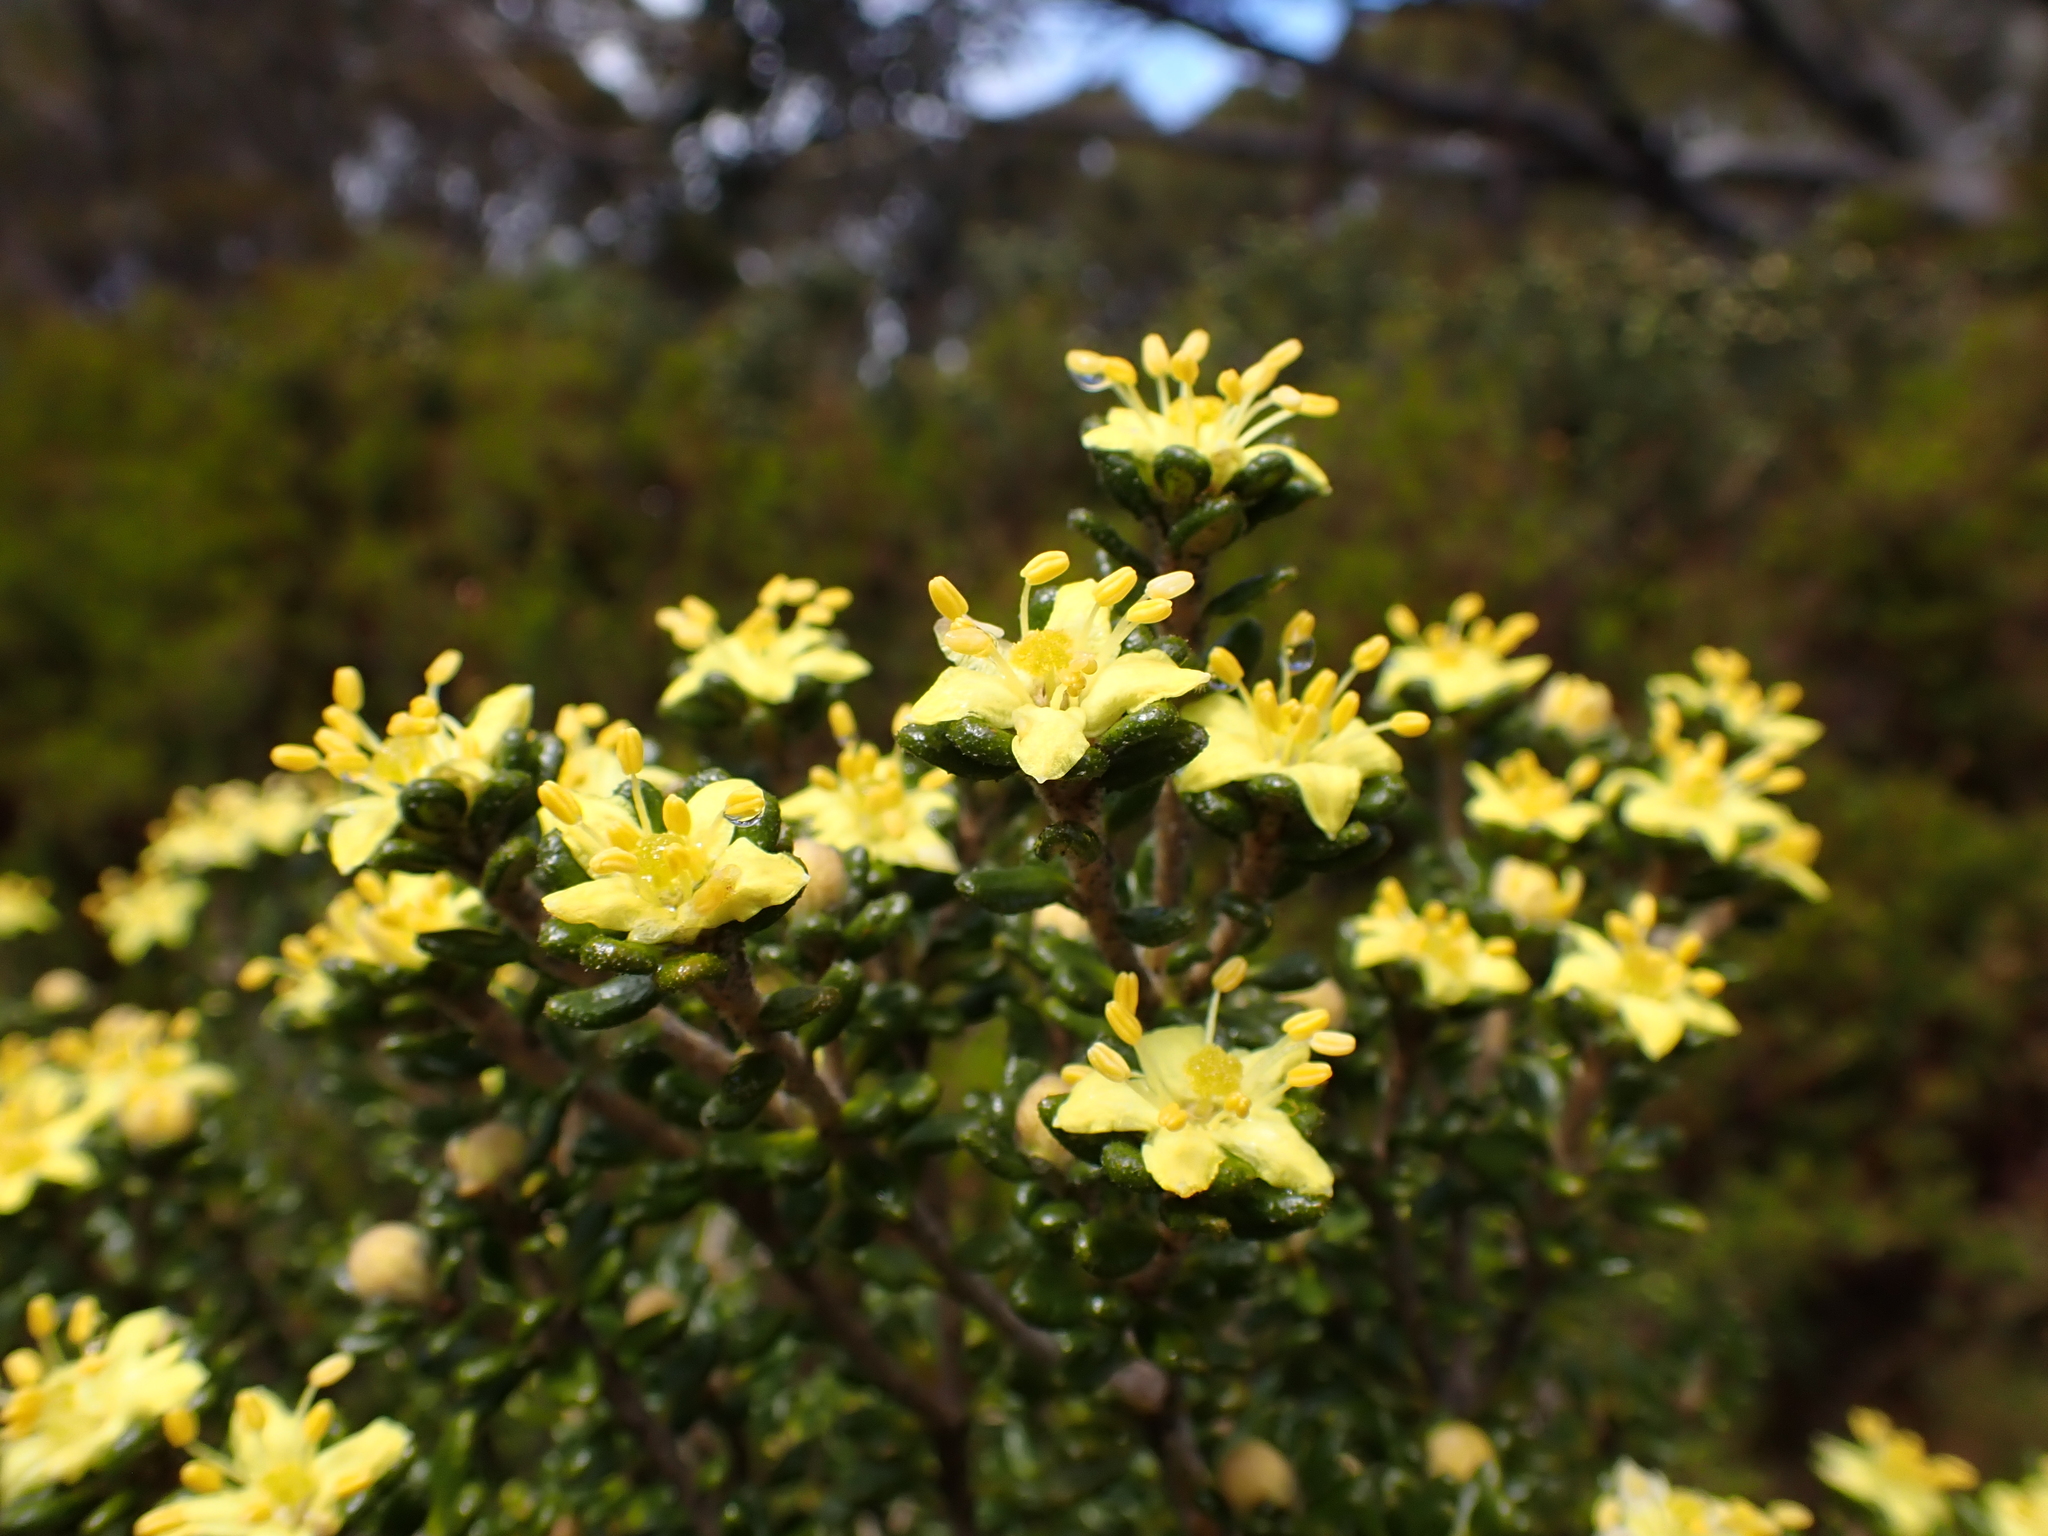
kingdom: Plantae
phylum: Tracheophyta
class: Magnoliopsida
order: Sapindales
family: Rutaceae
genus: Asterolasia
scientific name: Asterolasia trymalioides
